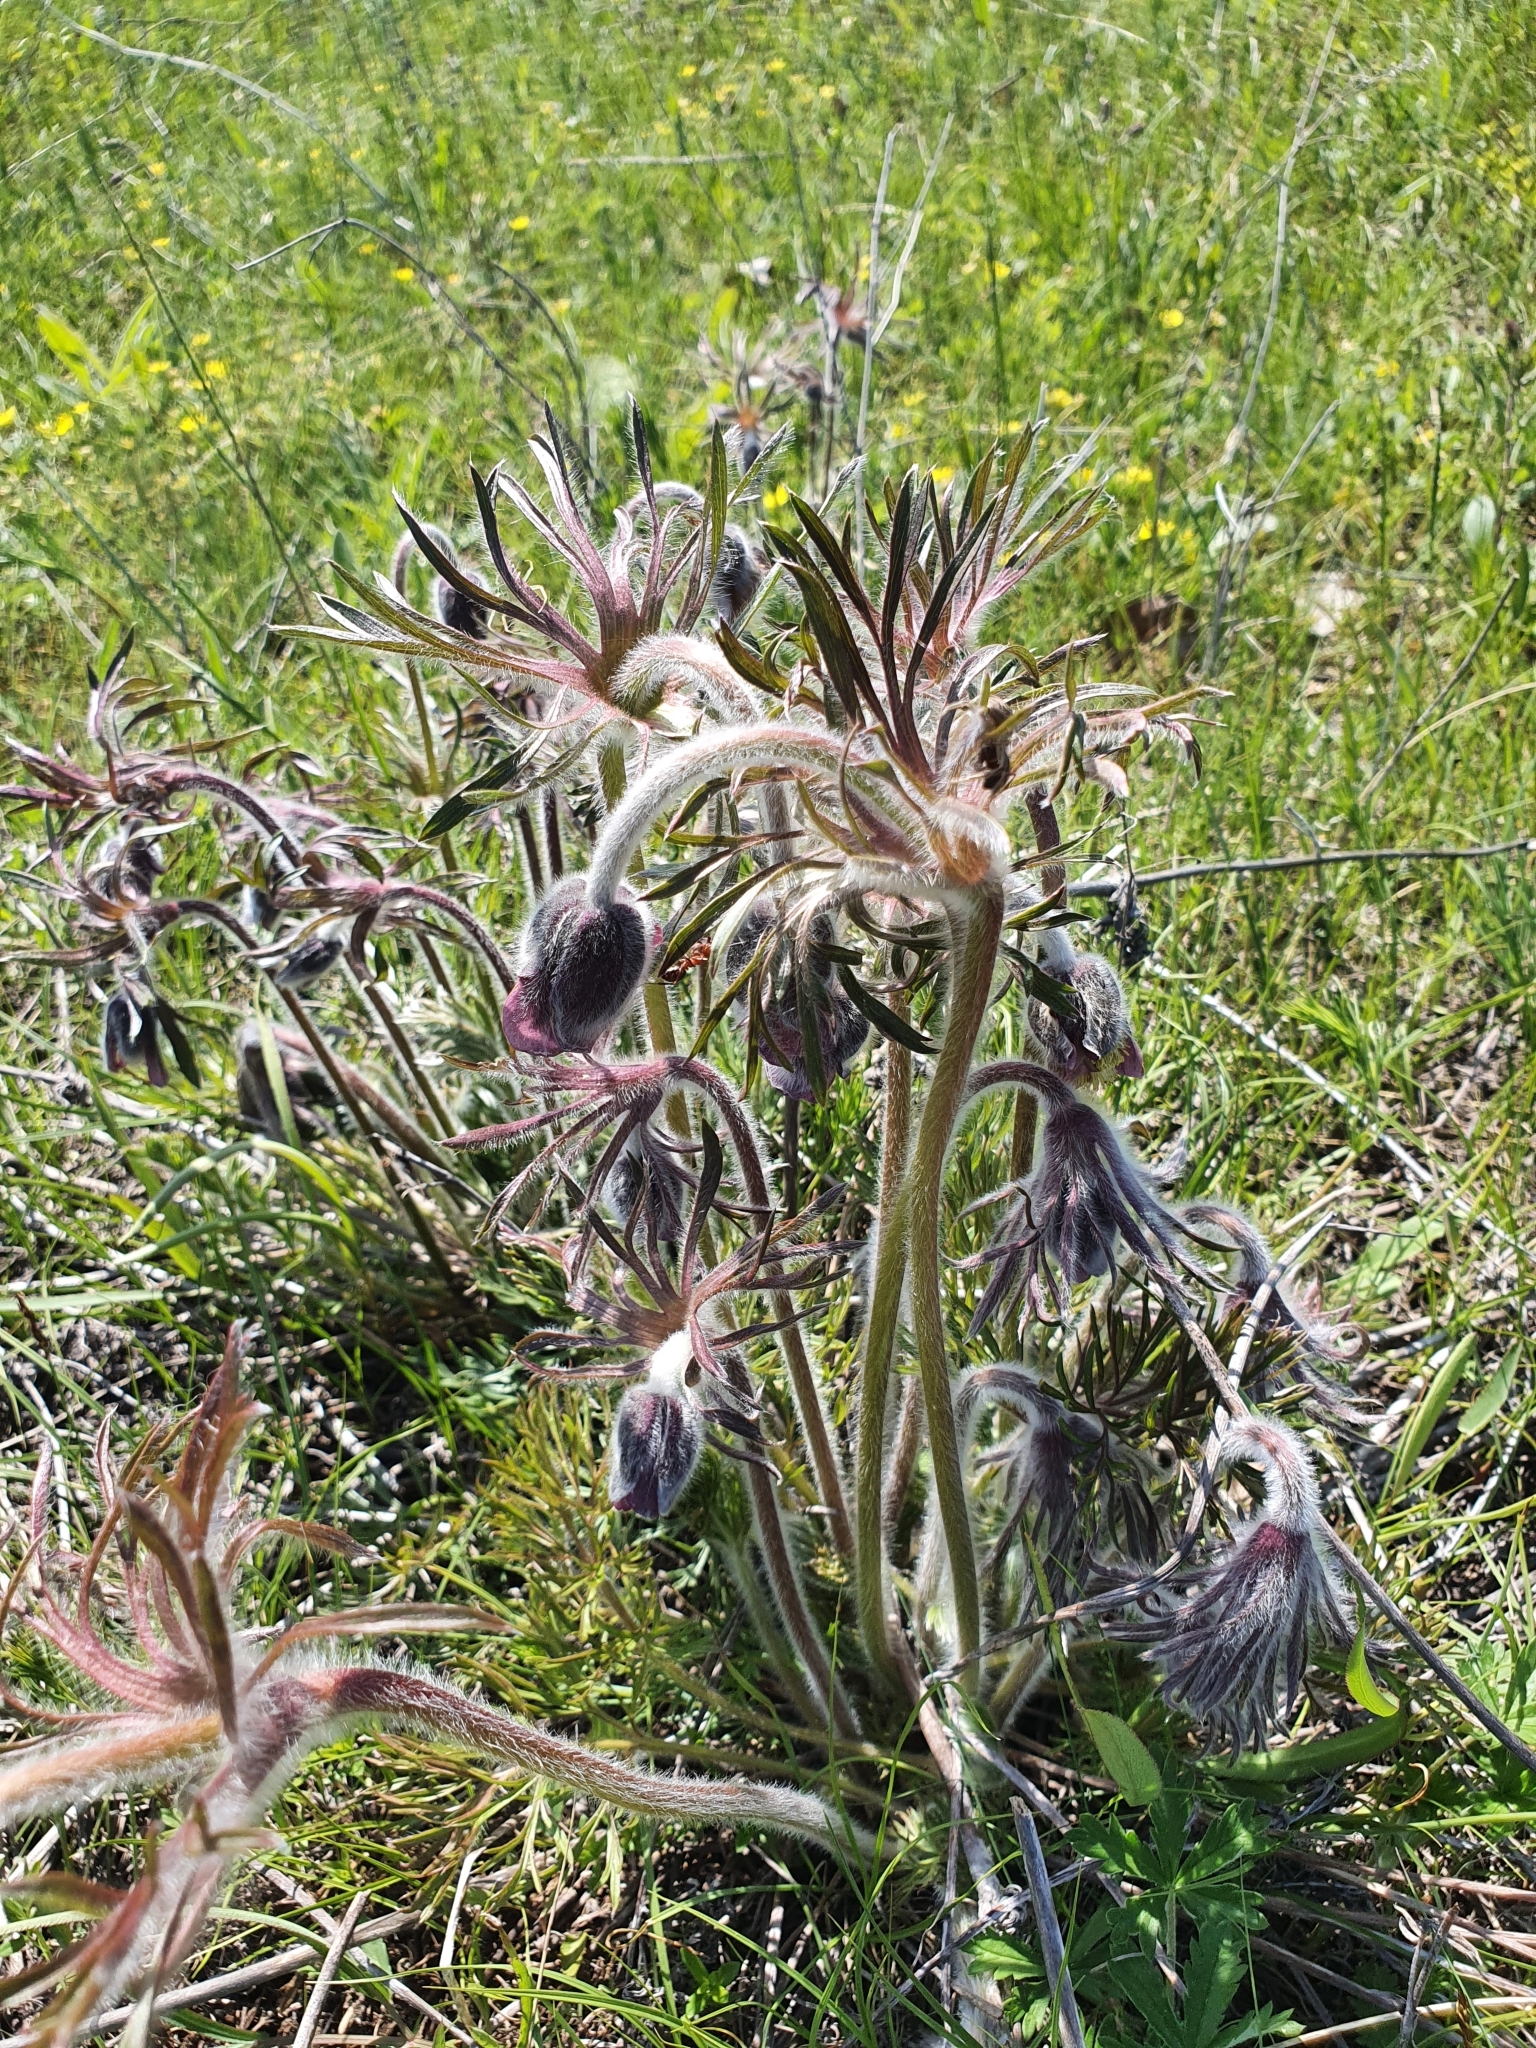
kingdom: Plantae
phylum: Tracheophyta
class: Magnoliopsida
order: Ranunculales
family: Ranunculaceae
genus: Pulsatilla
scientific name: Pulsatilla pratensis
